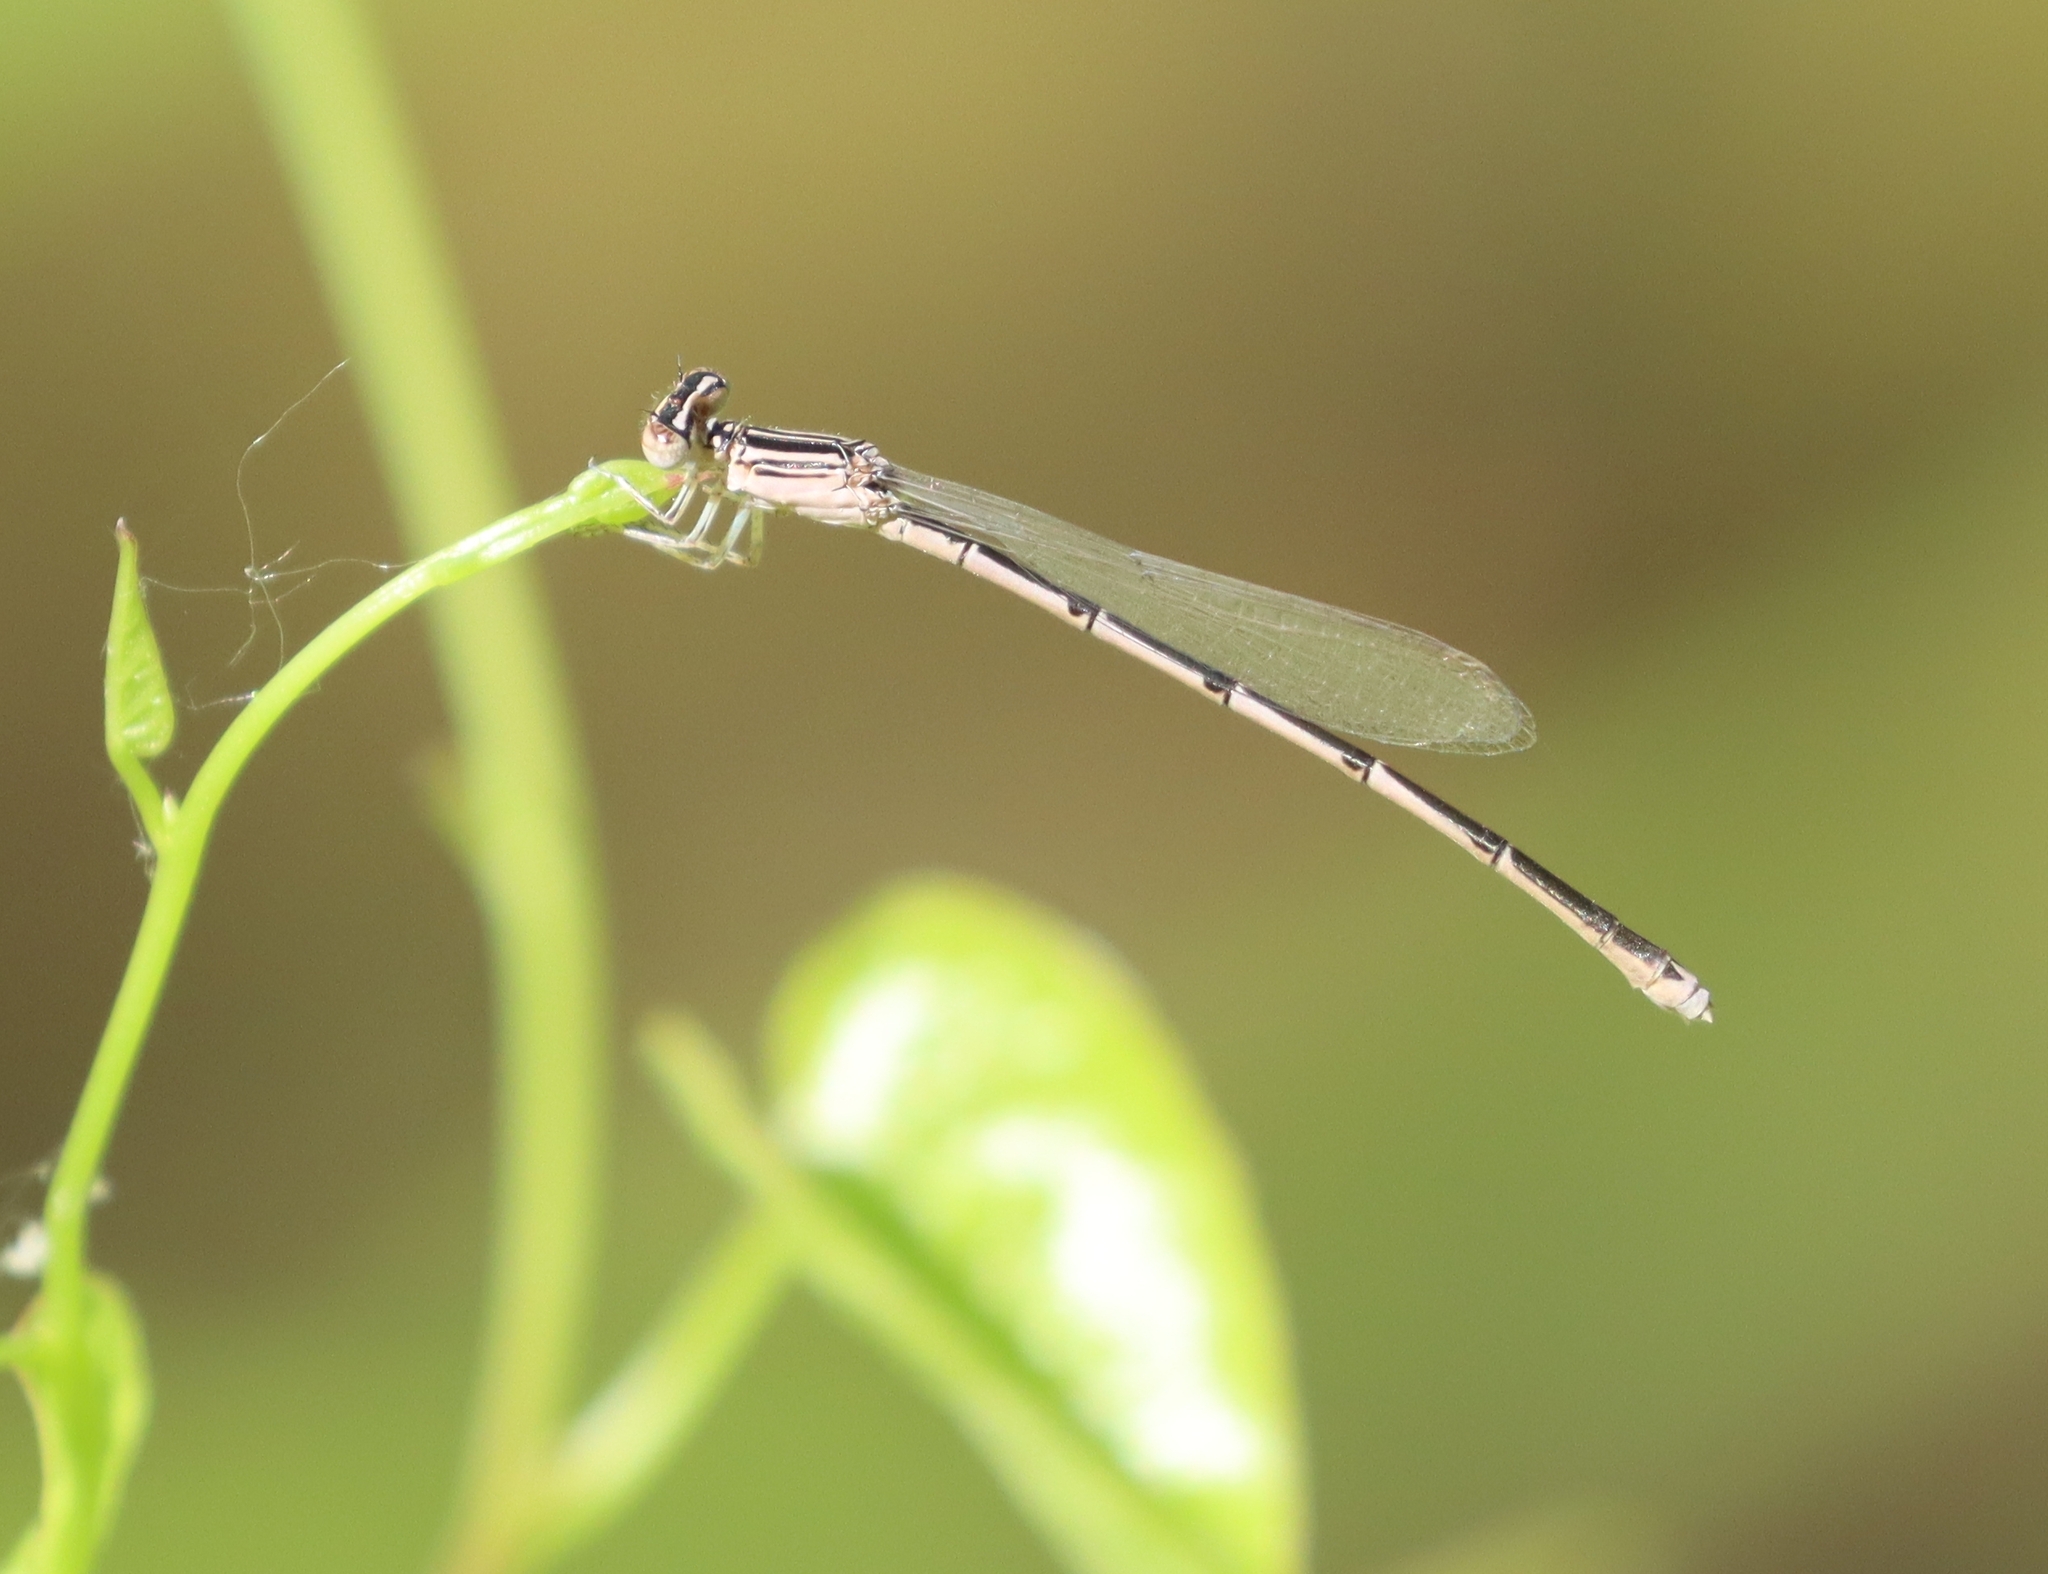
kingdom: Animalia
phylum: Arthropoda
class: Insecta
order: Odonata
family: Coenagrionidae
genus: Enallagma
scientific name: Enallagma basidens
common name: Double-striped bluet
